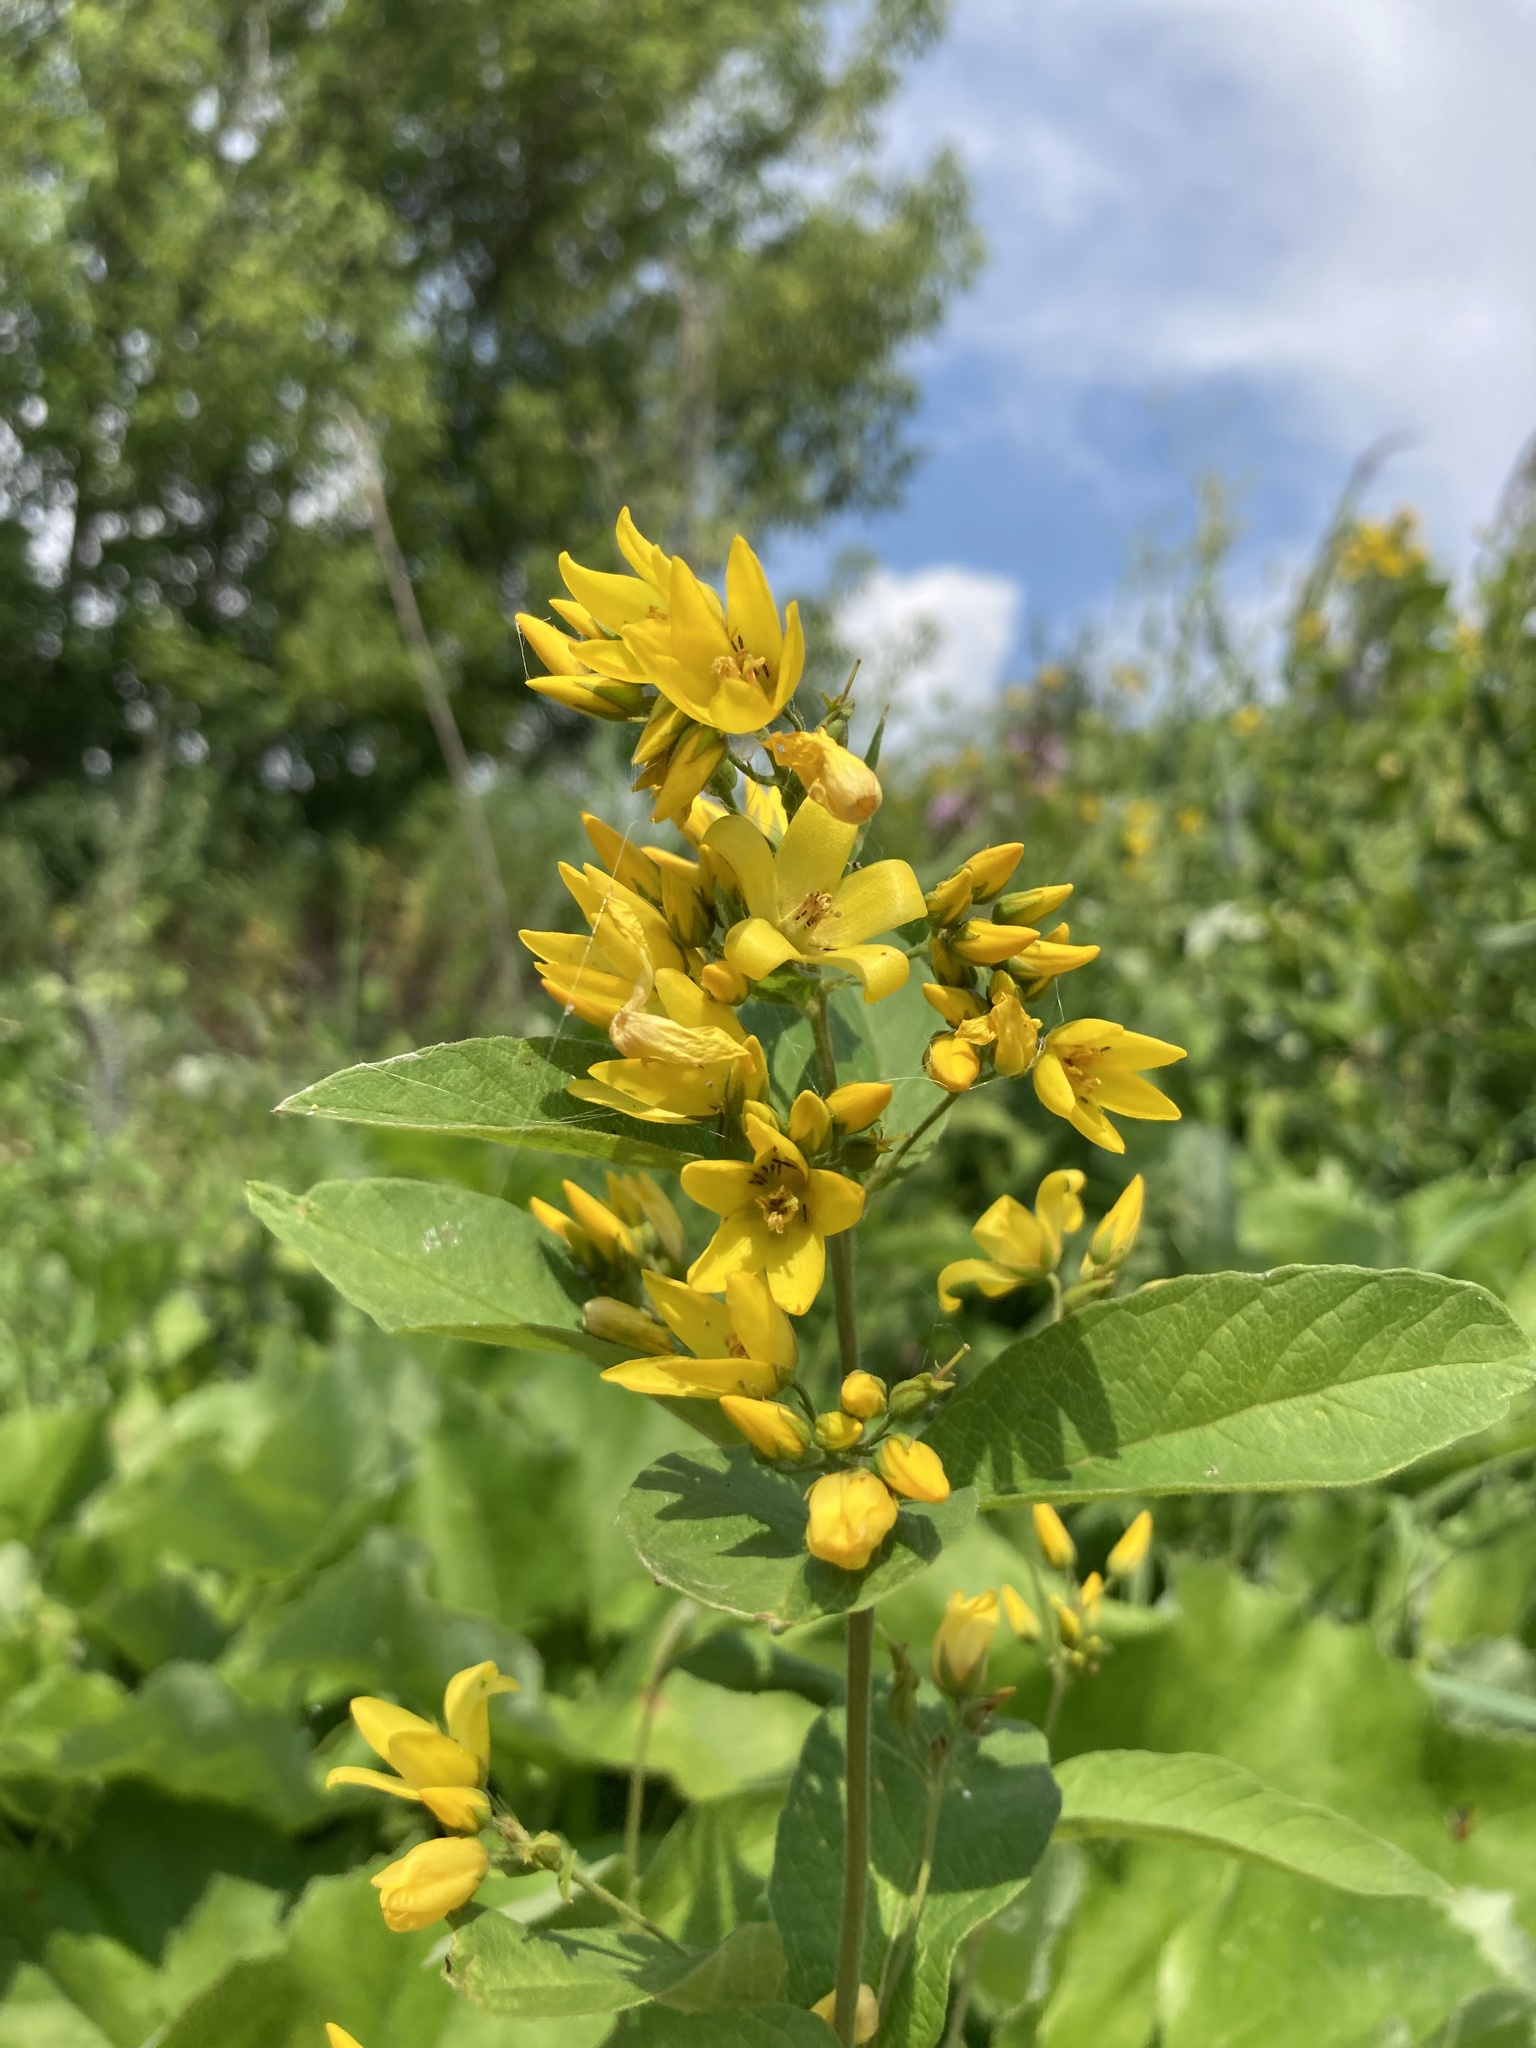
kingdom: Plantae
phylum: Tracheophyta
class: Magnoliopsida
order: Ericales
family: Primulaceae
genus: Lysimachia
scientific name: Lysimachia vulgaris
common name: Yellow loosestrife
